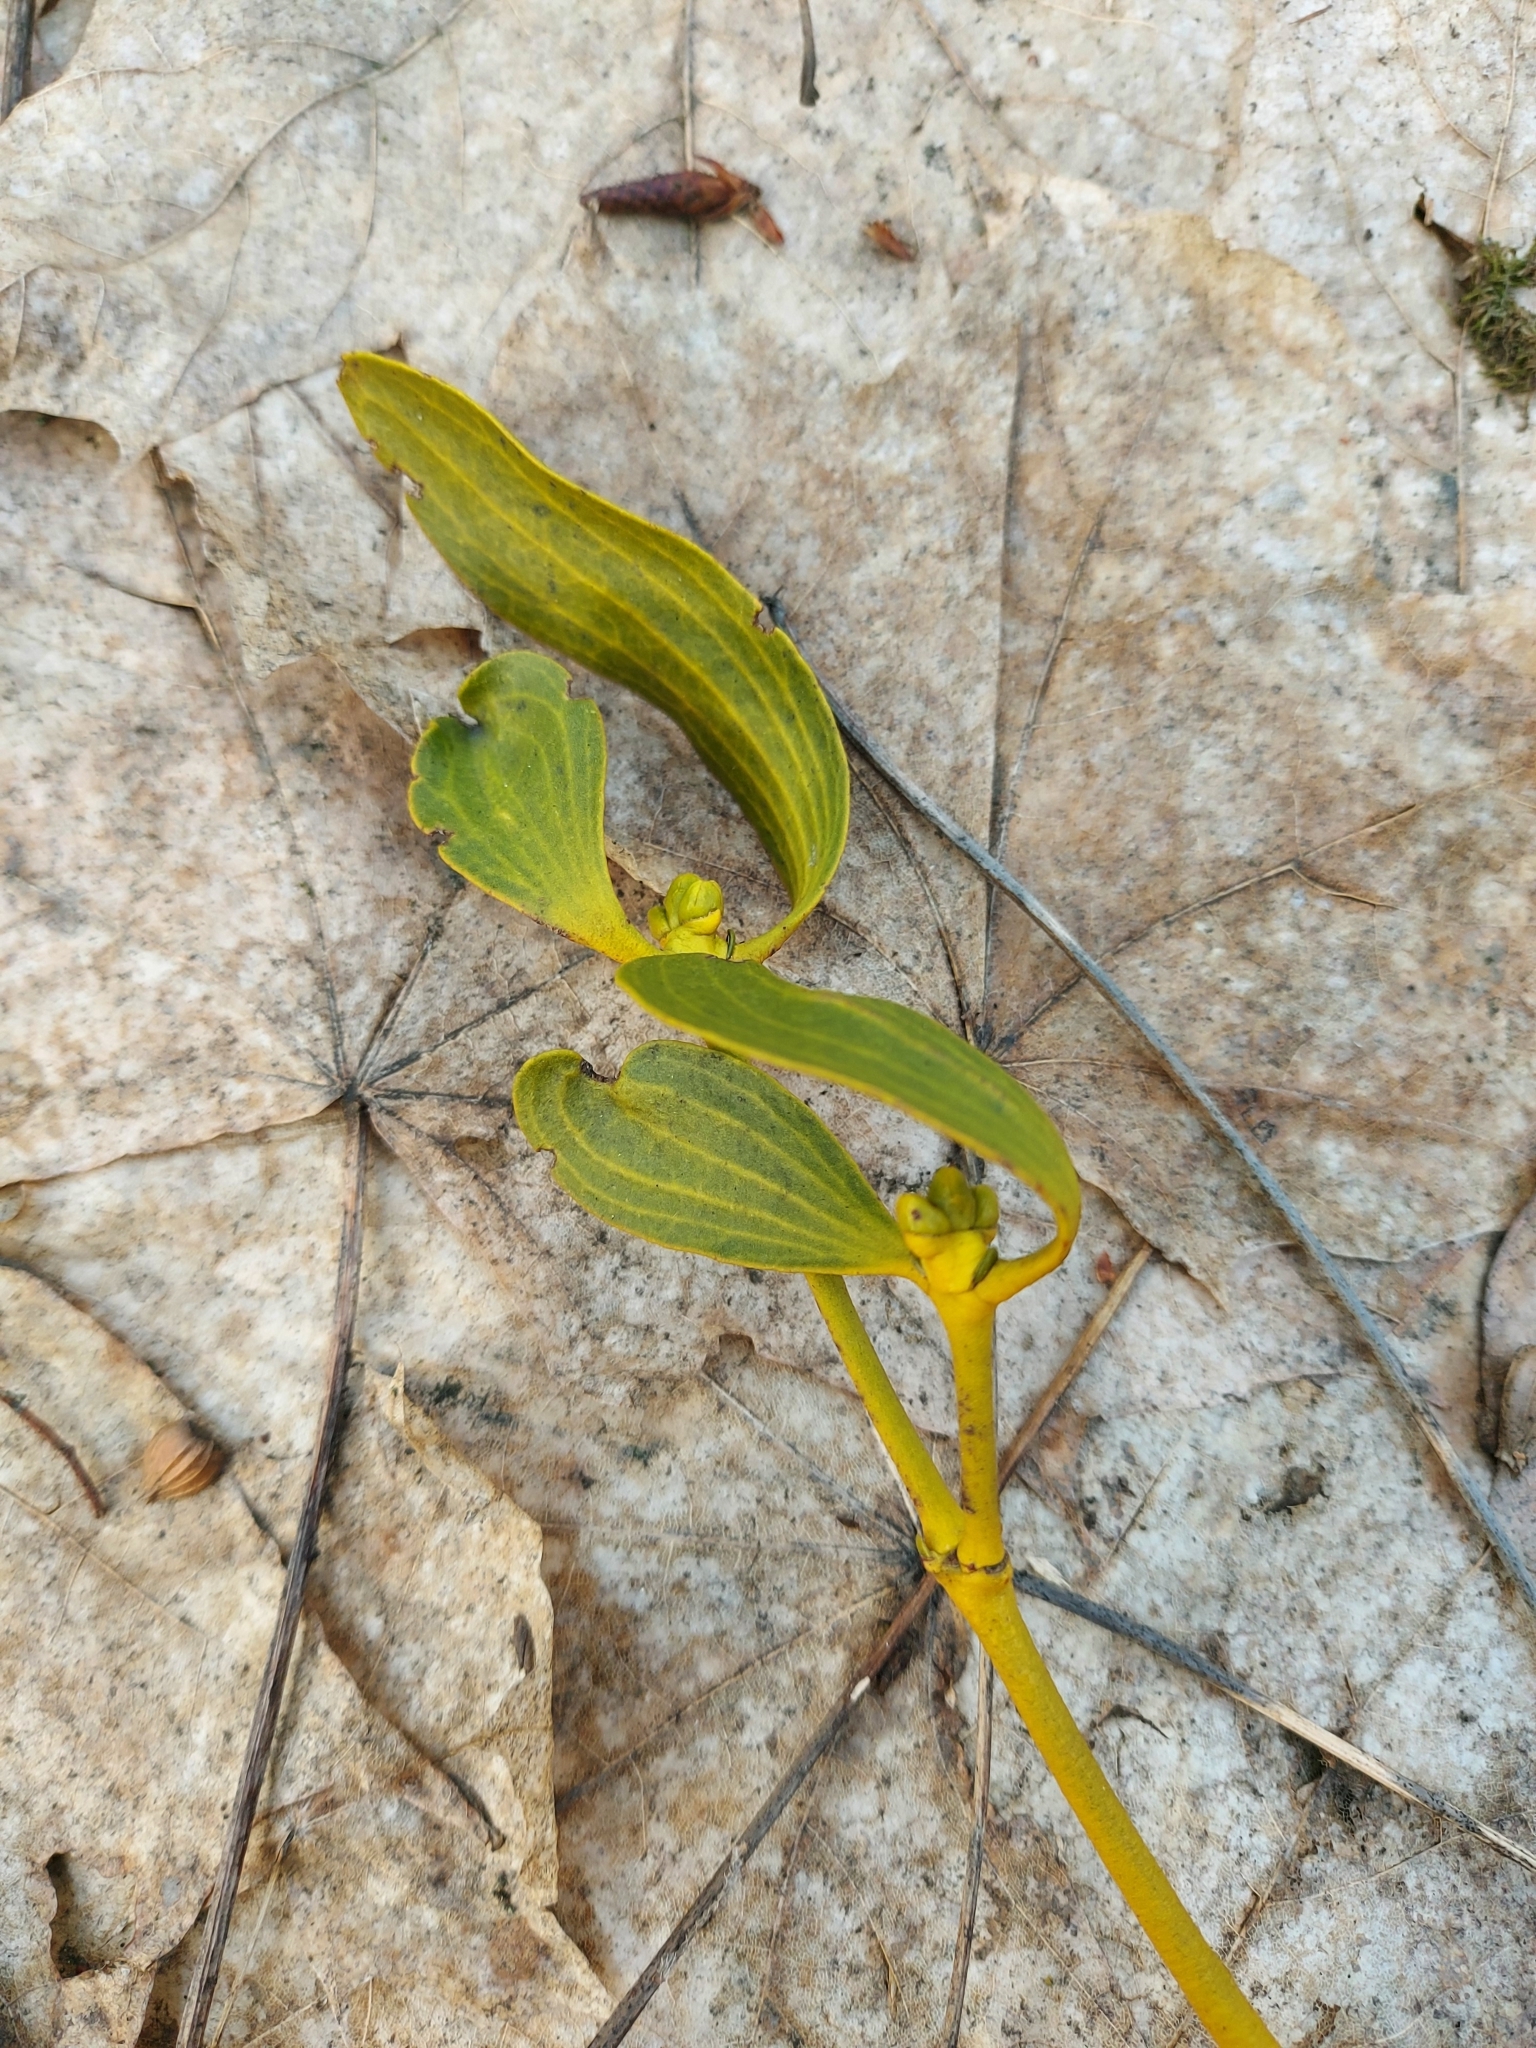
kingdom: Plantae
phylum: Tracheophyta
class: Magnoliopsida
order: Santalales
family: Viscaceae
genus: Viscum
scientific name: Viscum album
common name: Mistletoe
